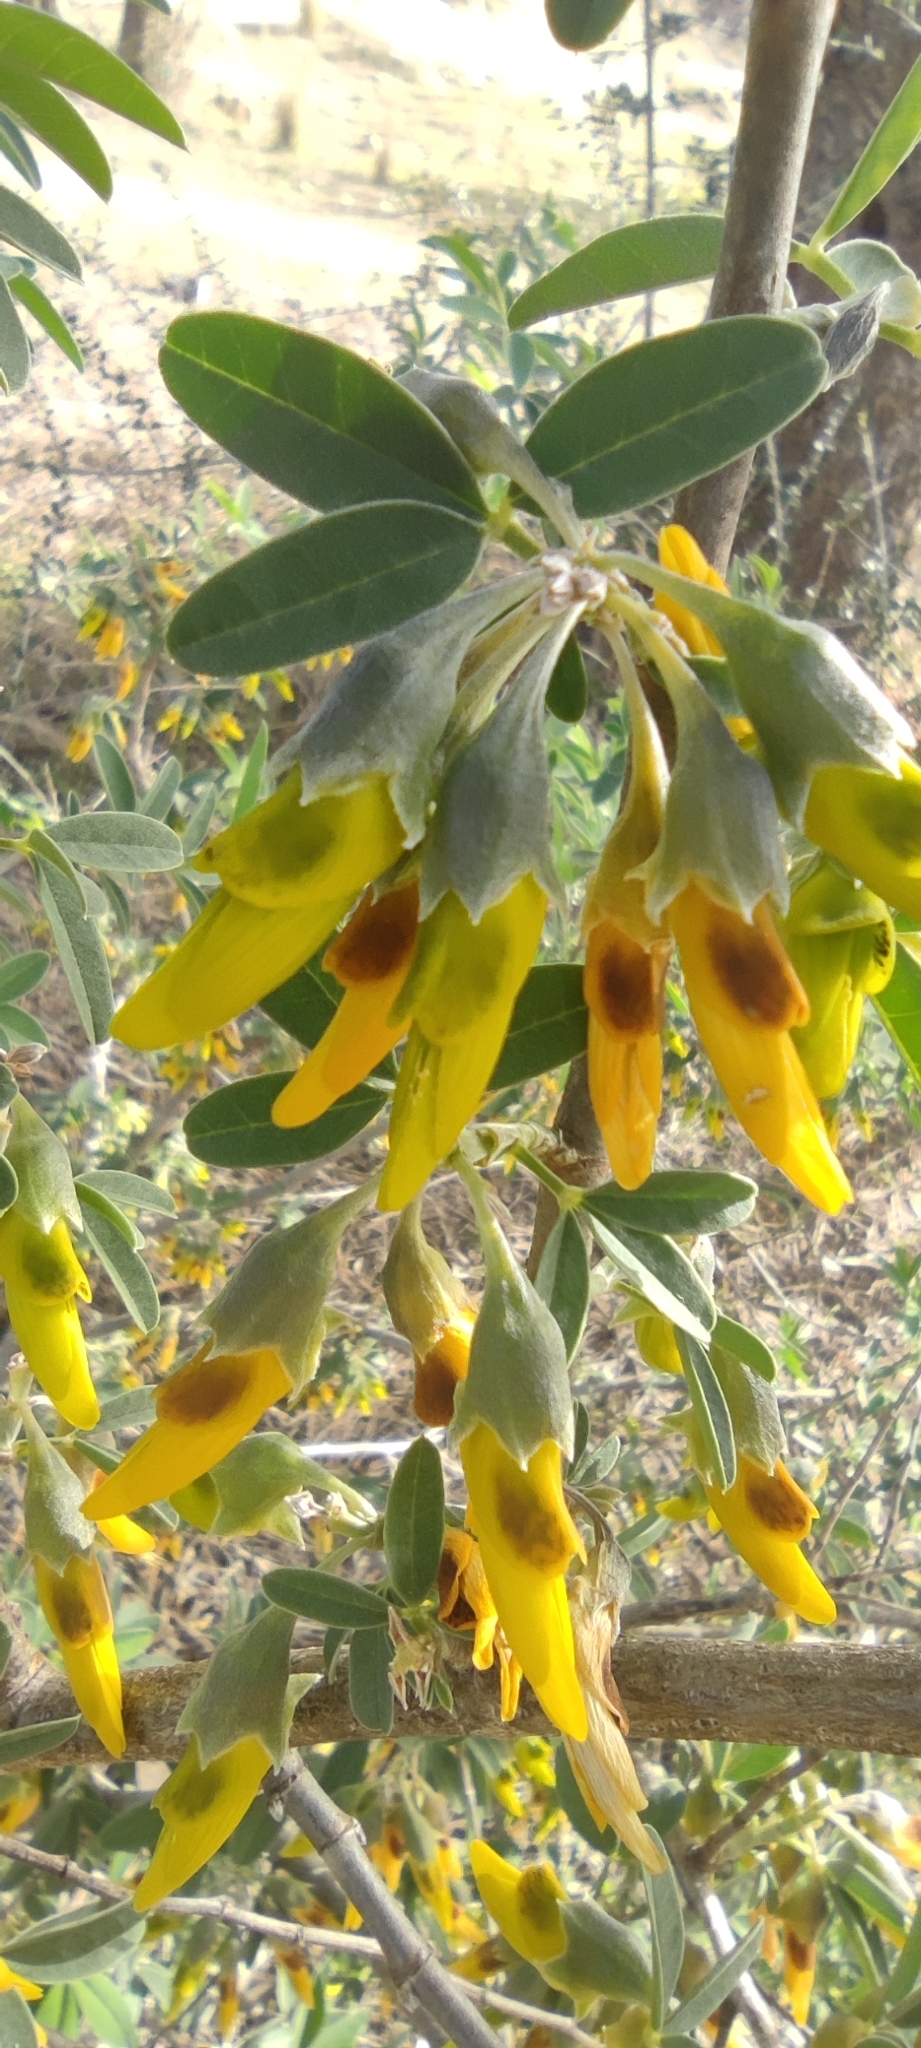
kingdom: Plantae
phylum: Tracheophyta
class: Magnoliopsida
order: Fabales
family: Fabaceae
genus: Anagyris
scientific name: Anagyris foetida
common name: Stinking bean trefoil
